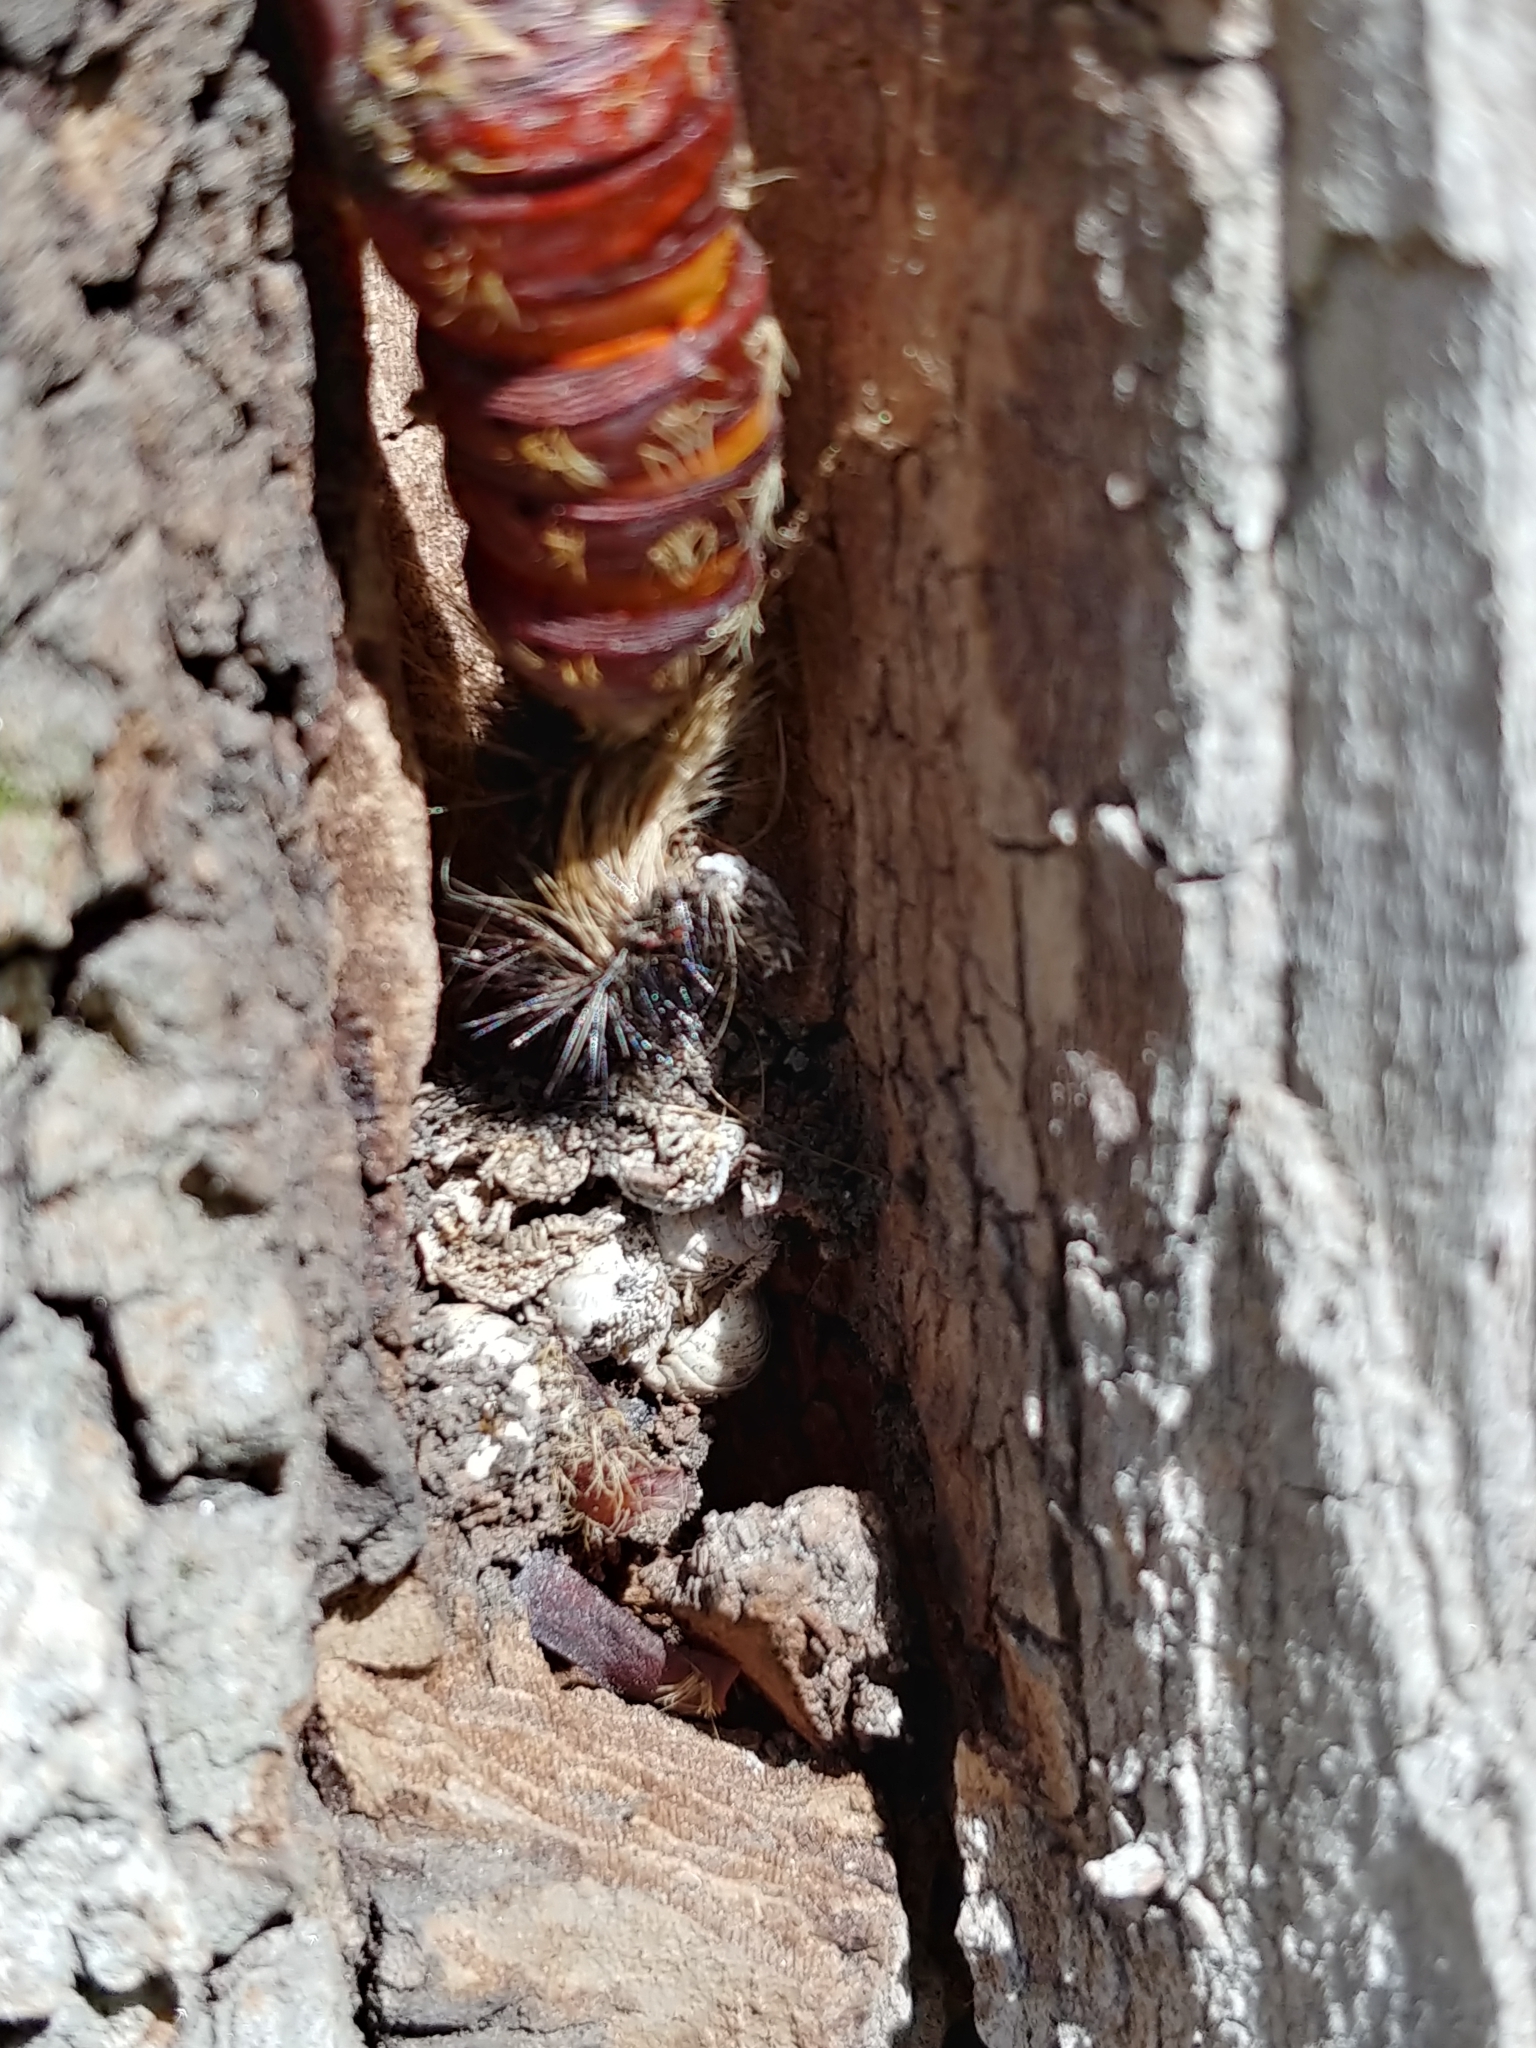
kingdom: Animalia
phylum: Arthropoda
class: Insecta
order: Lepidoptera
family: Erebidae
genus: Lymantria
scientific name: Lymantria dispar
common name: Gypsy moth
